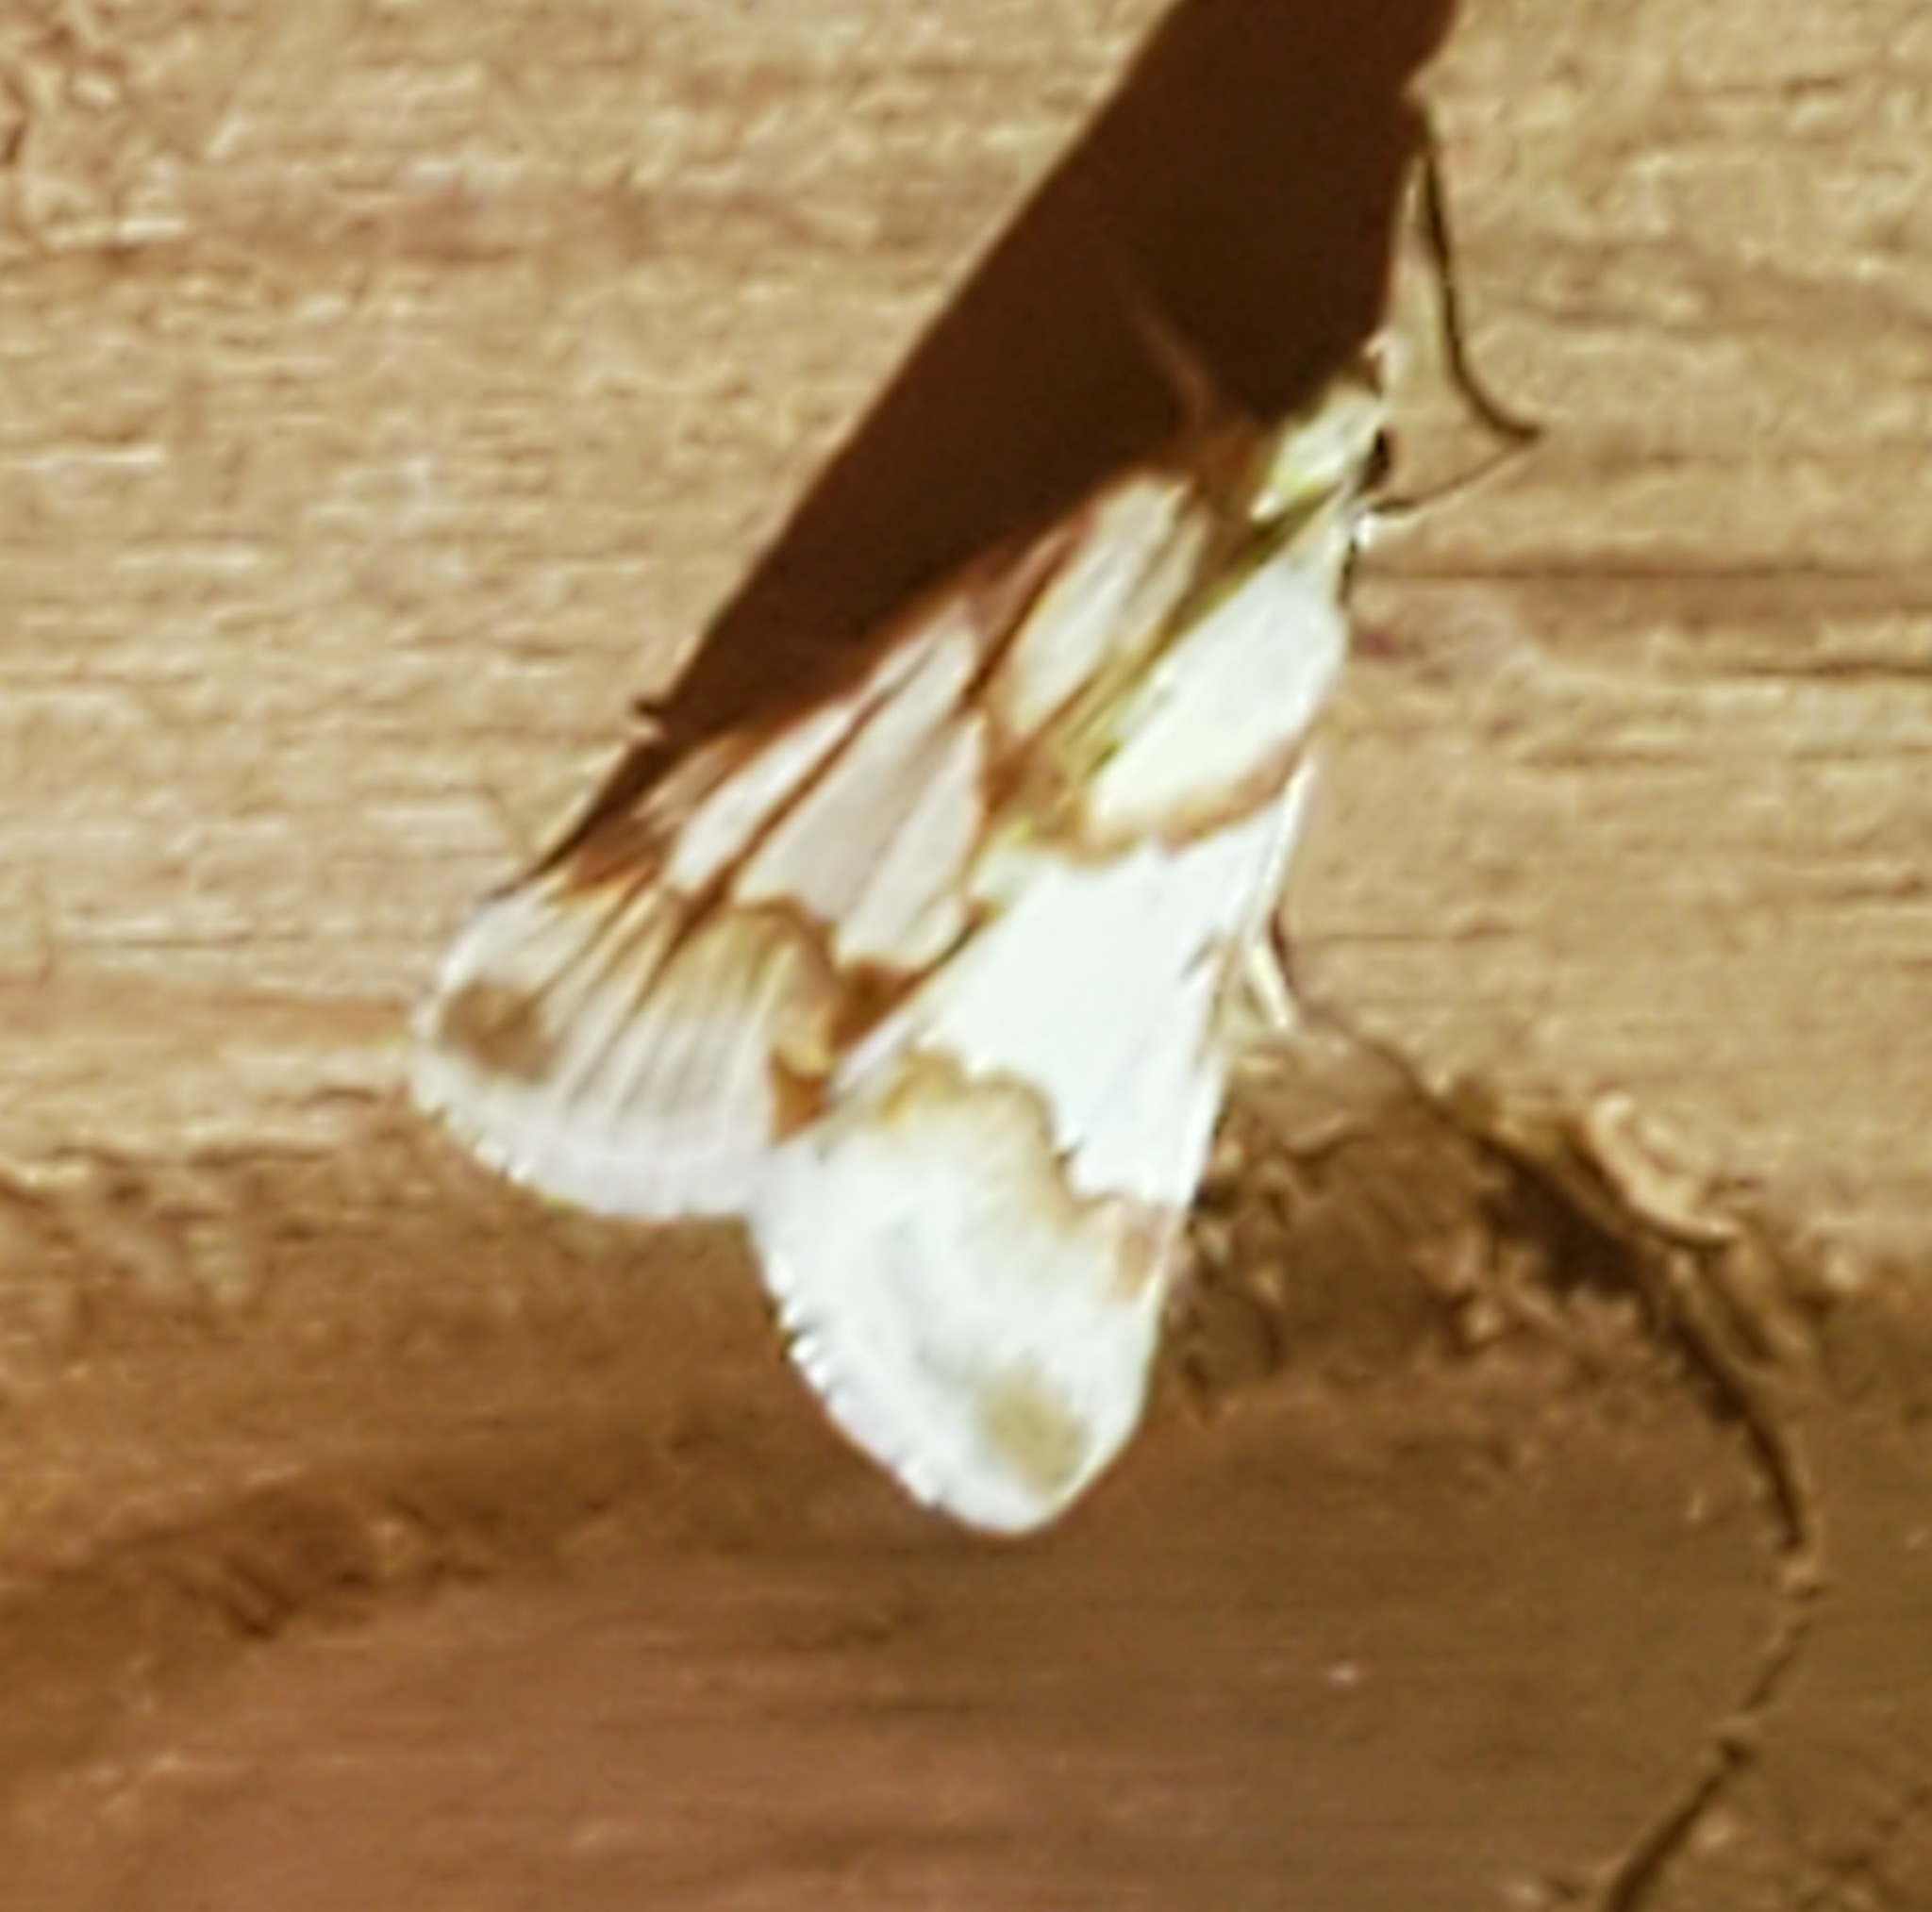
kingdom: Animalia
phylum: Arthropoda
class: Insecta
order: Lepidoptera
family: Crambidae
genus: Noctuelia
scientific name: Noctuelia Mimoschinia rufofascialis
